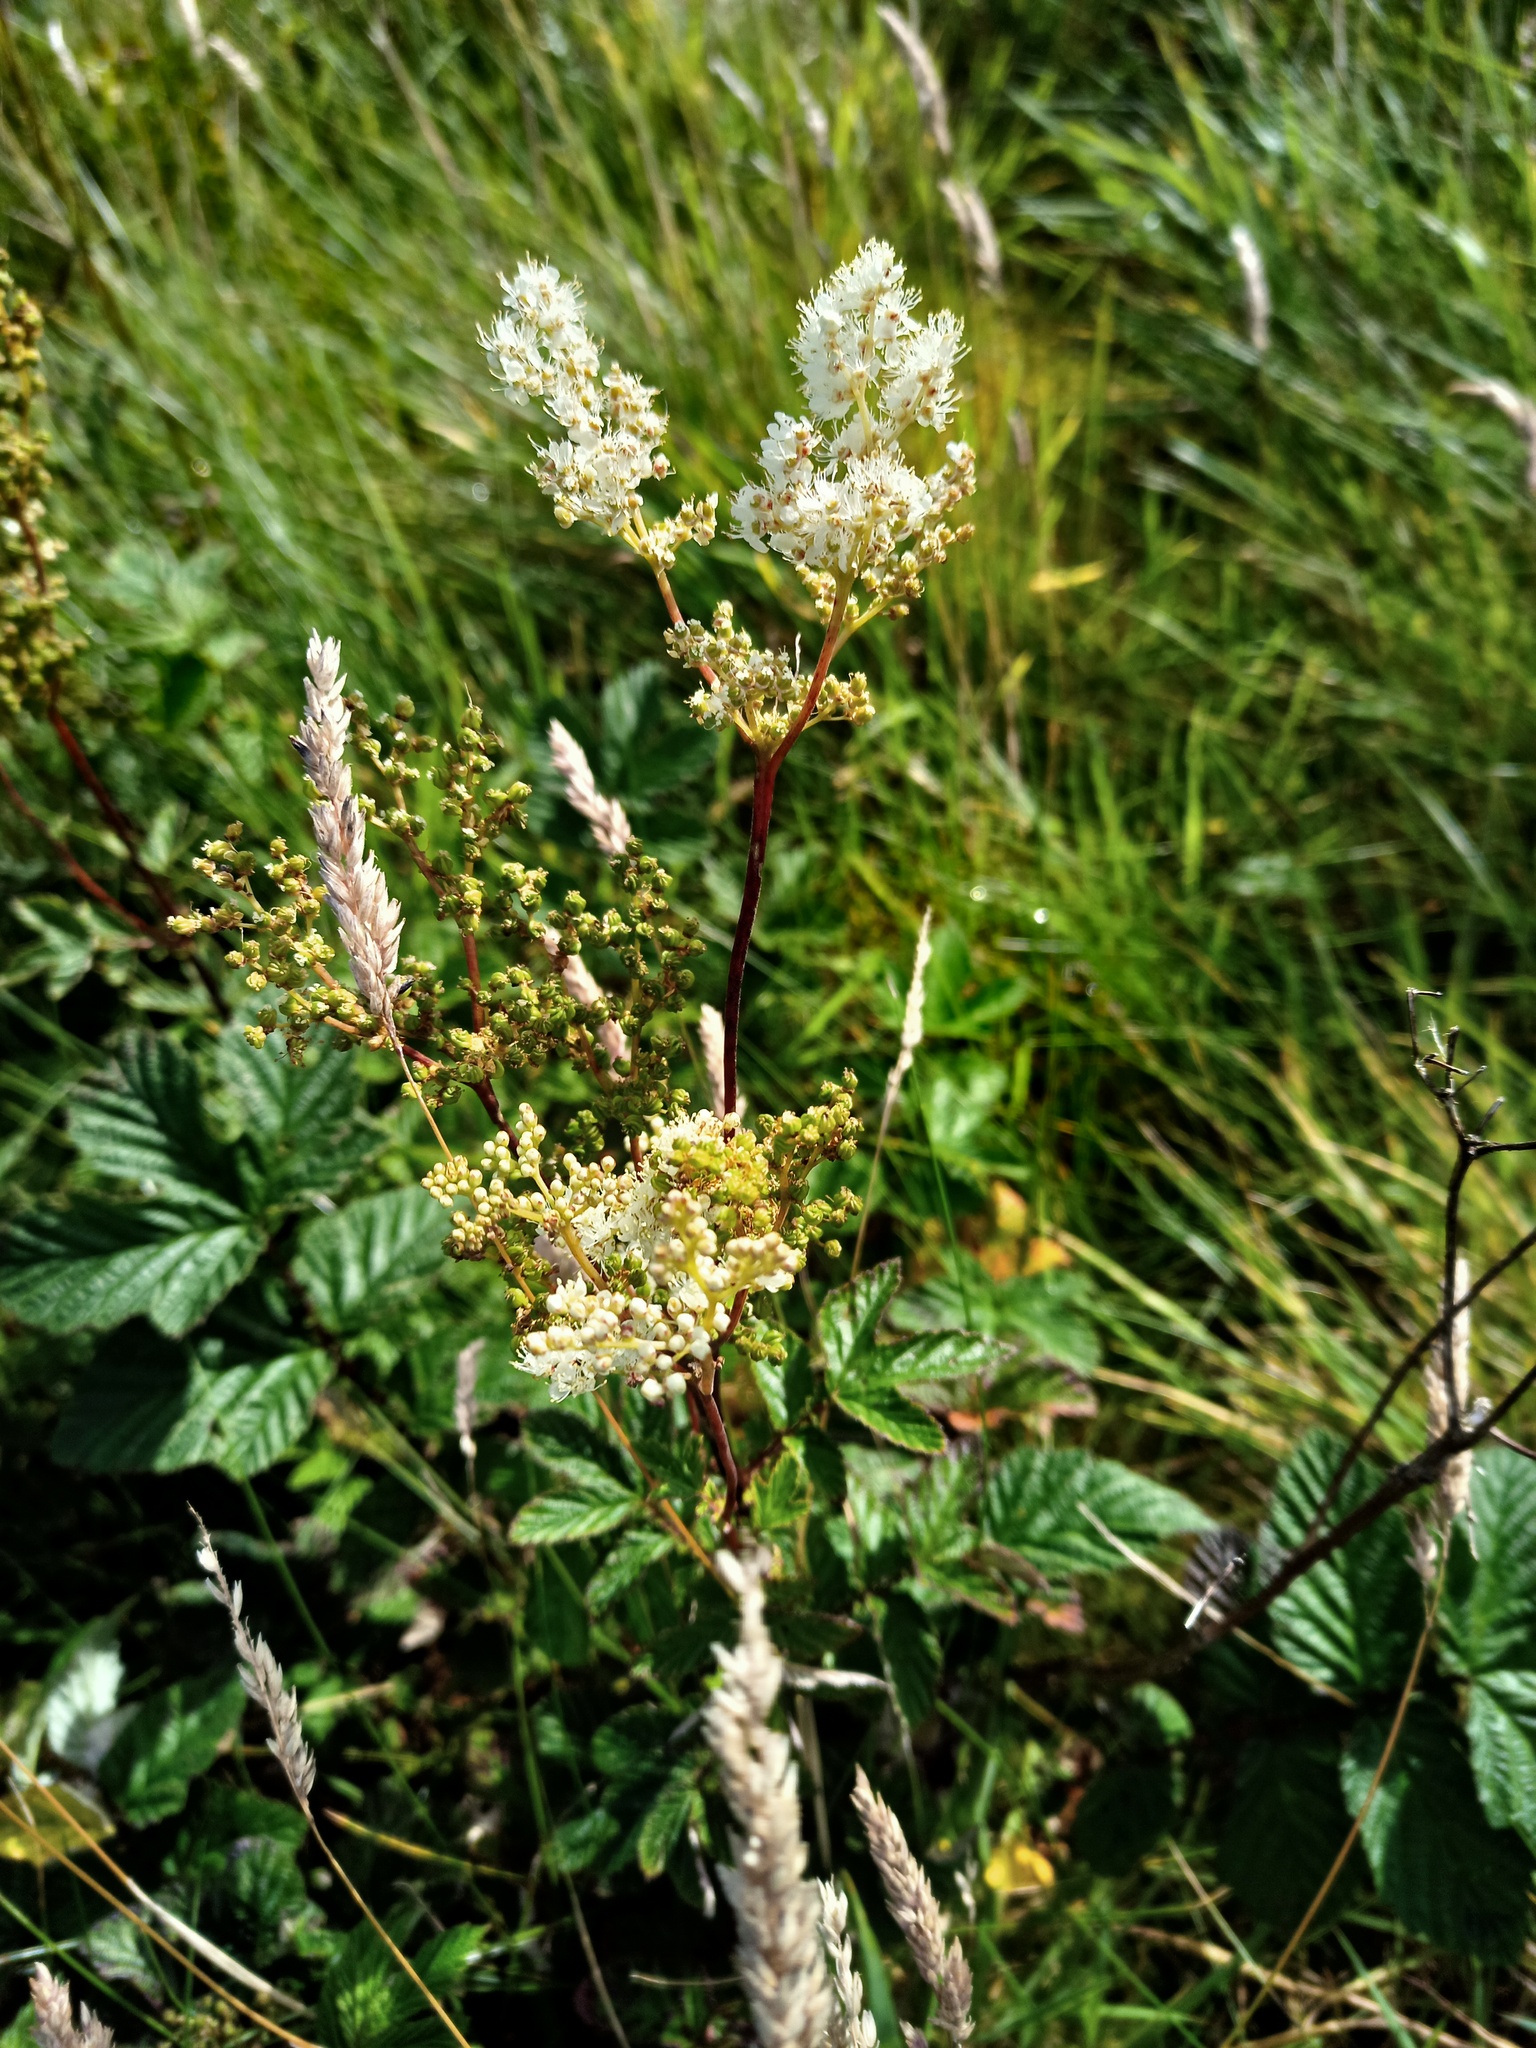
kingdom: Plantae
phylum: Tracheophyta
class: Magnoliopsida
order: Rosales
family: Rosaceae
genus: Filipendula
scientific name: Filipendula ulmaria
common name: Meadowsweet
